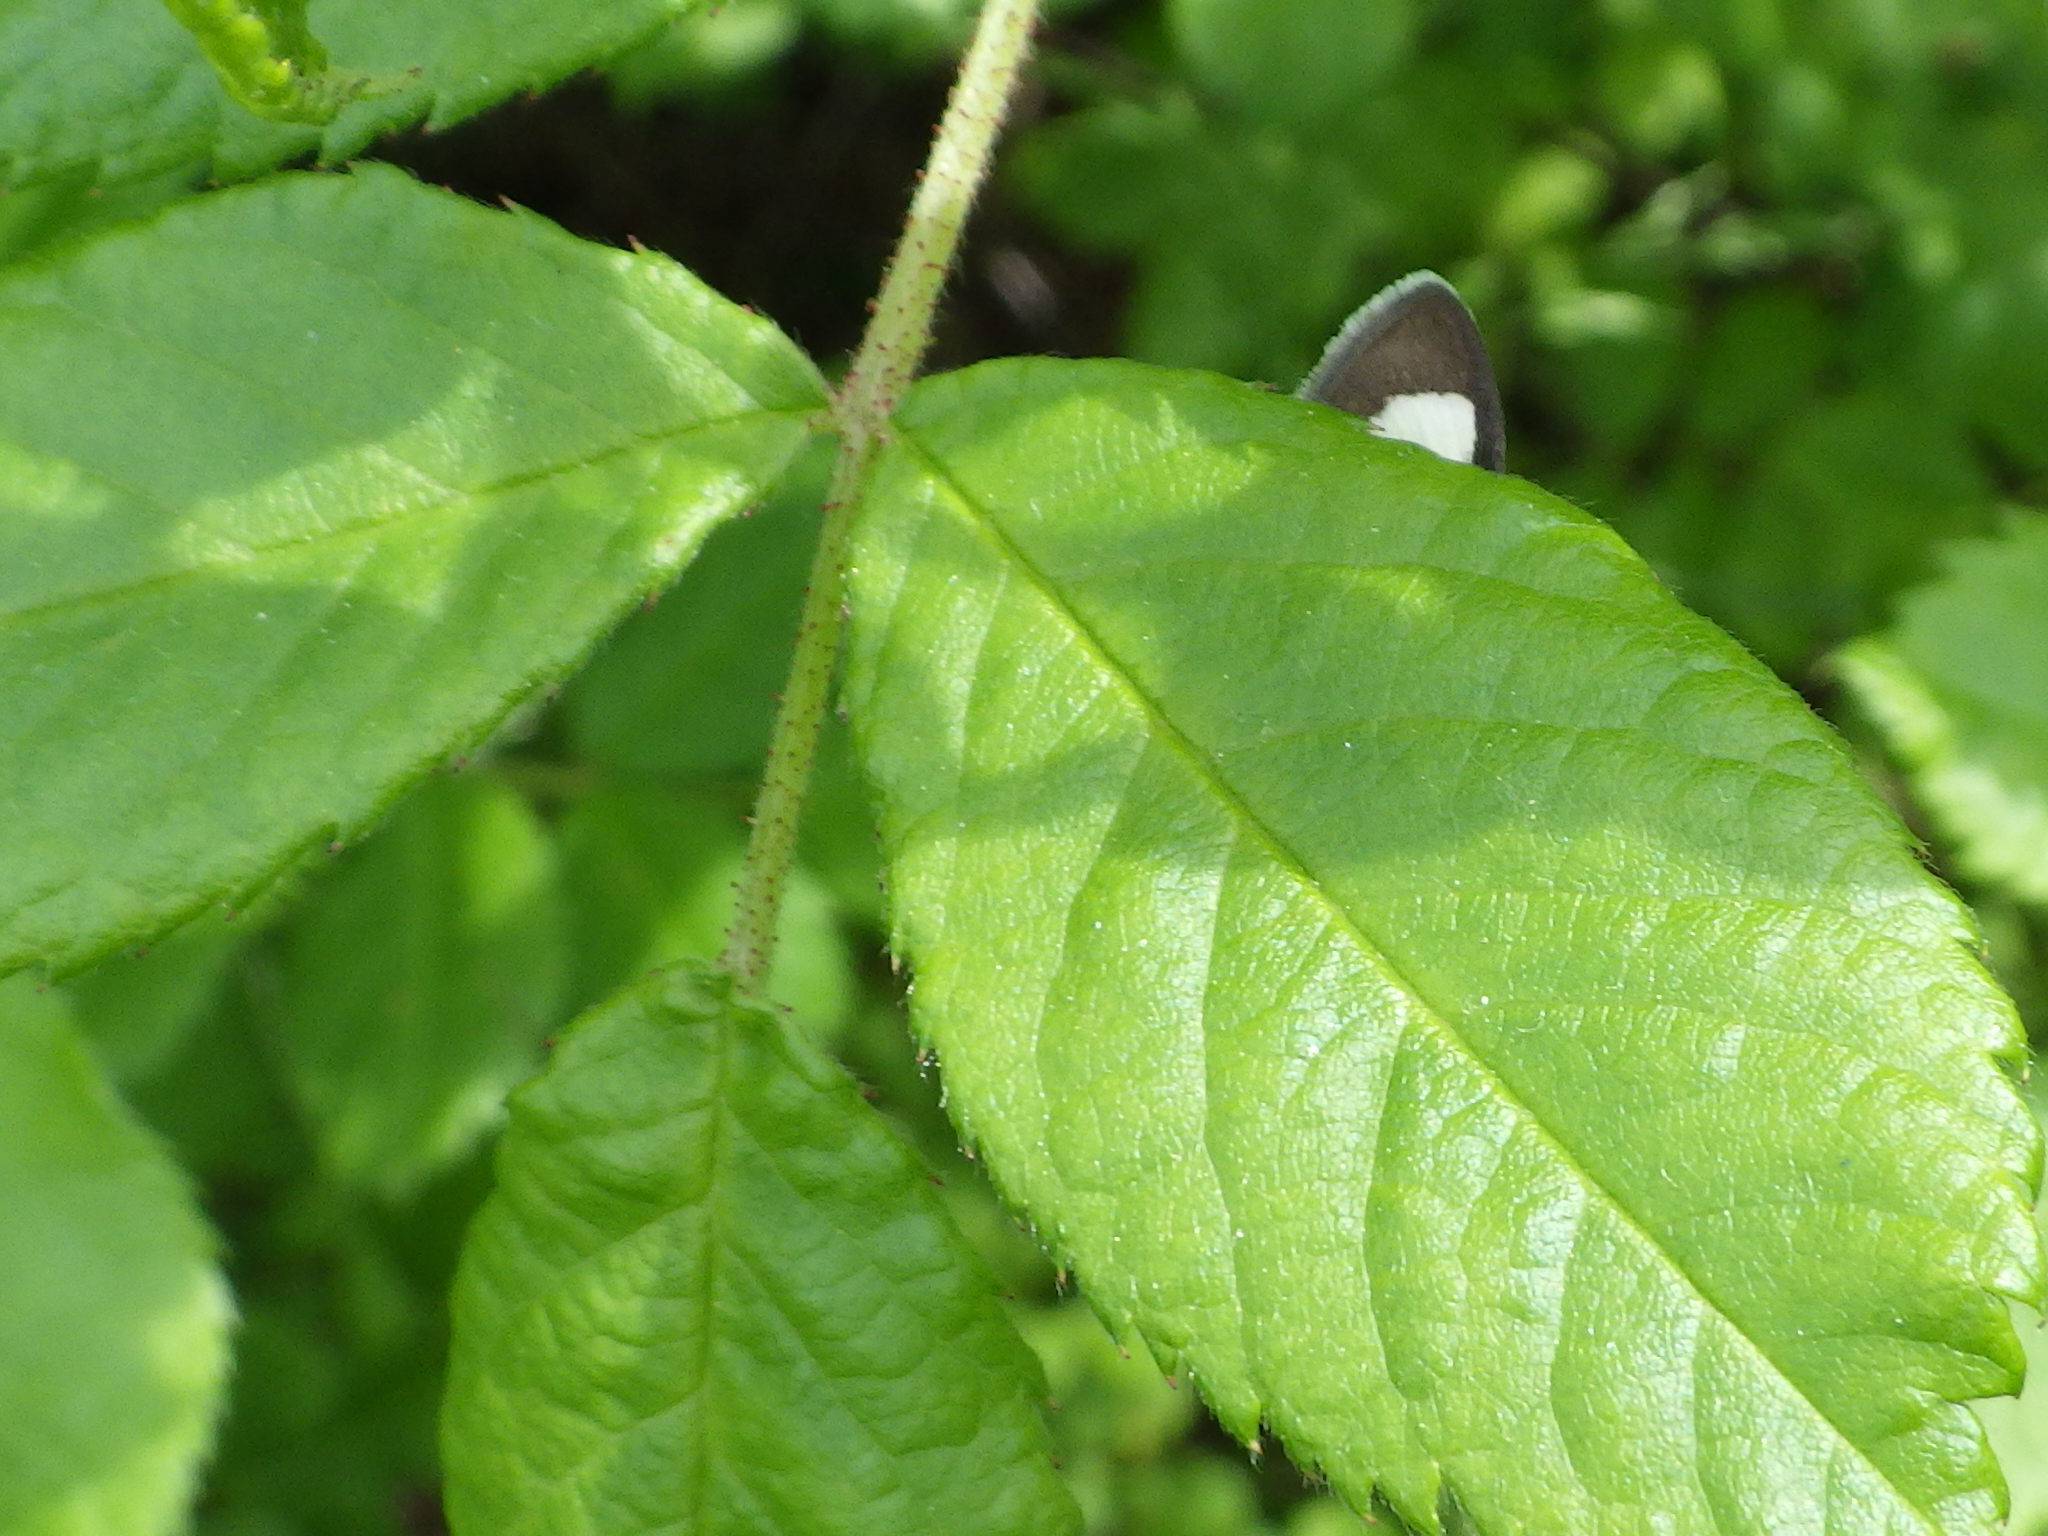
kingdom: Animalia
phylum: Arthropoda
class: Insecta
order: Lepidoptera
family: Crambidae
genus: Anania
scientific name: Anania funebris
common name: White-spotted sable moth
